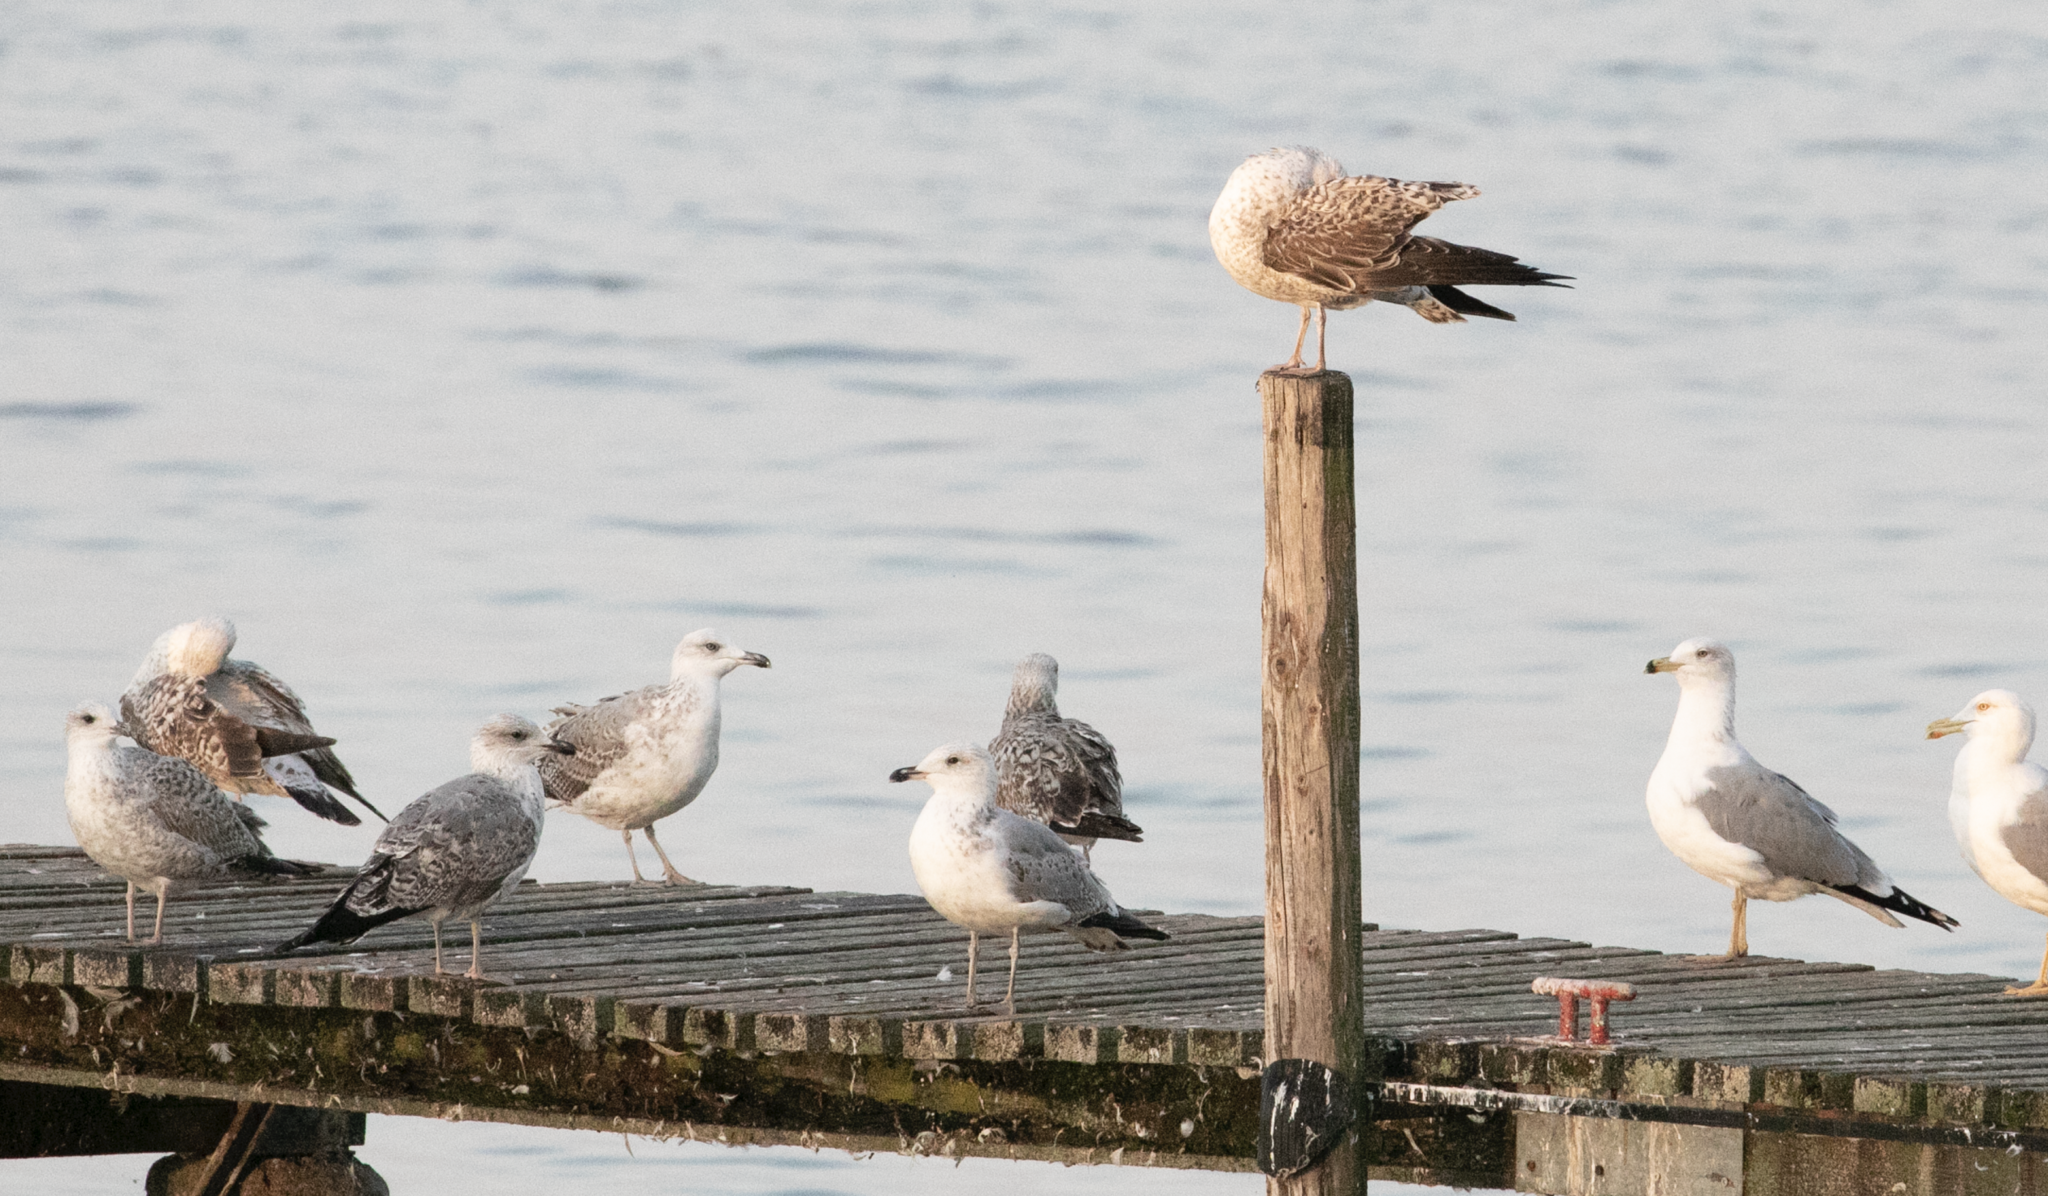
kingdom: Animalia
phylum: Chordata
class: Aves
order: Charadriiformes
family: Laridae
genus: Larus
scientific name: Larus michahellis
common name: Yellow-legged gull
